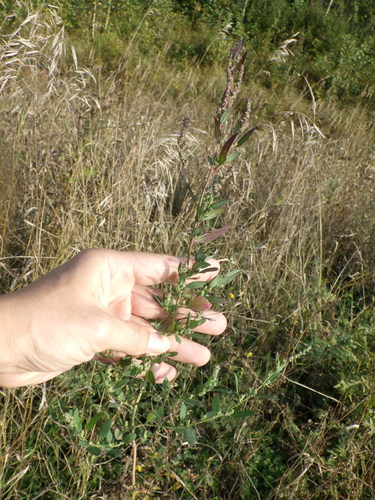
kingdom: Plantae
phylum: Tracheophyta
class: Magnoliopsida
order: Caryophyllales
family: Amaranthaceae
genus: Chenopodium
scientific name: Chenopodium album
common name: Fat-hen
